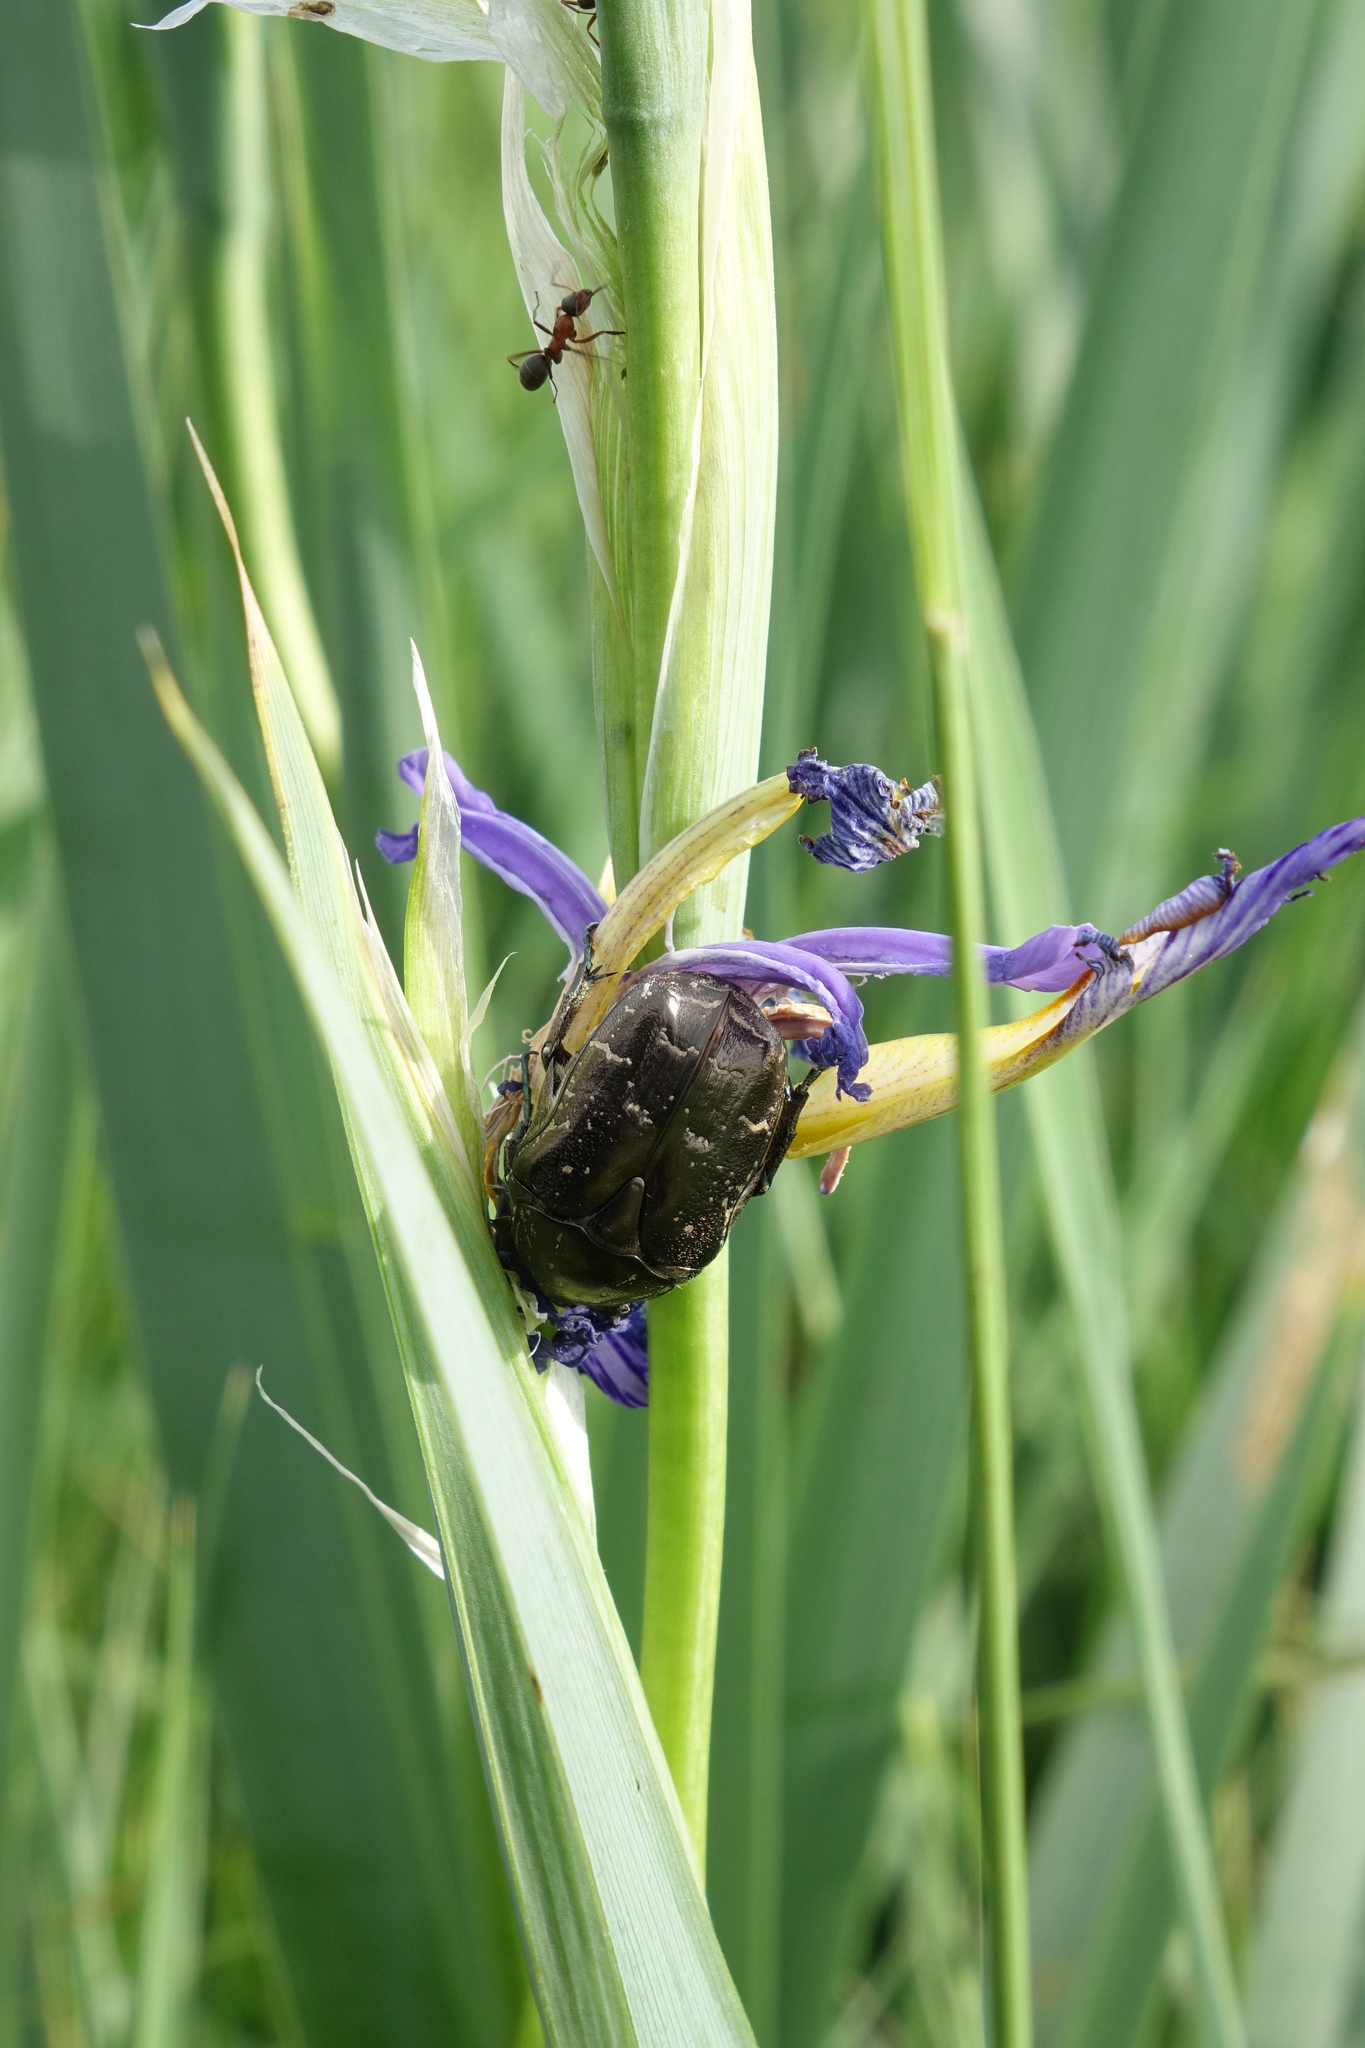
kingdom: Animalia
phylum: Arthropoda
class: Insecta
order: Coleoptera
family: Scarabaeidae
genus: Protaetia
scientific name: Protaetia cuprea
